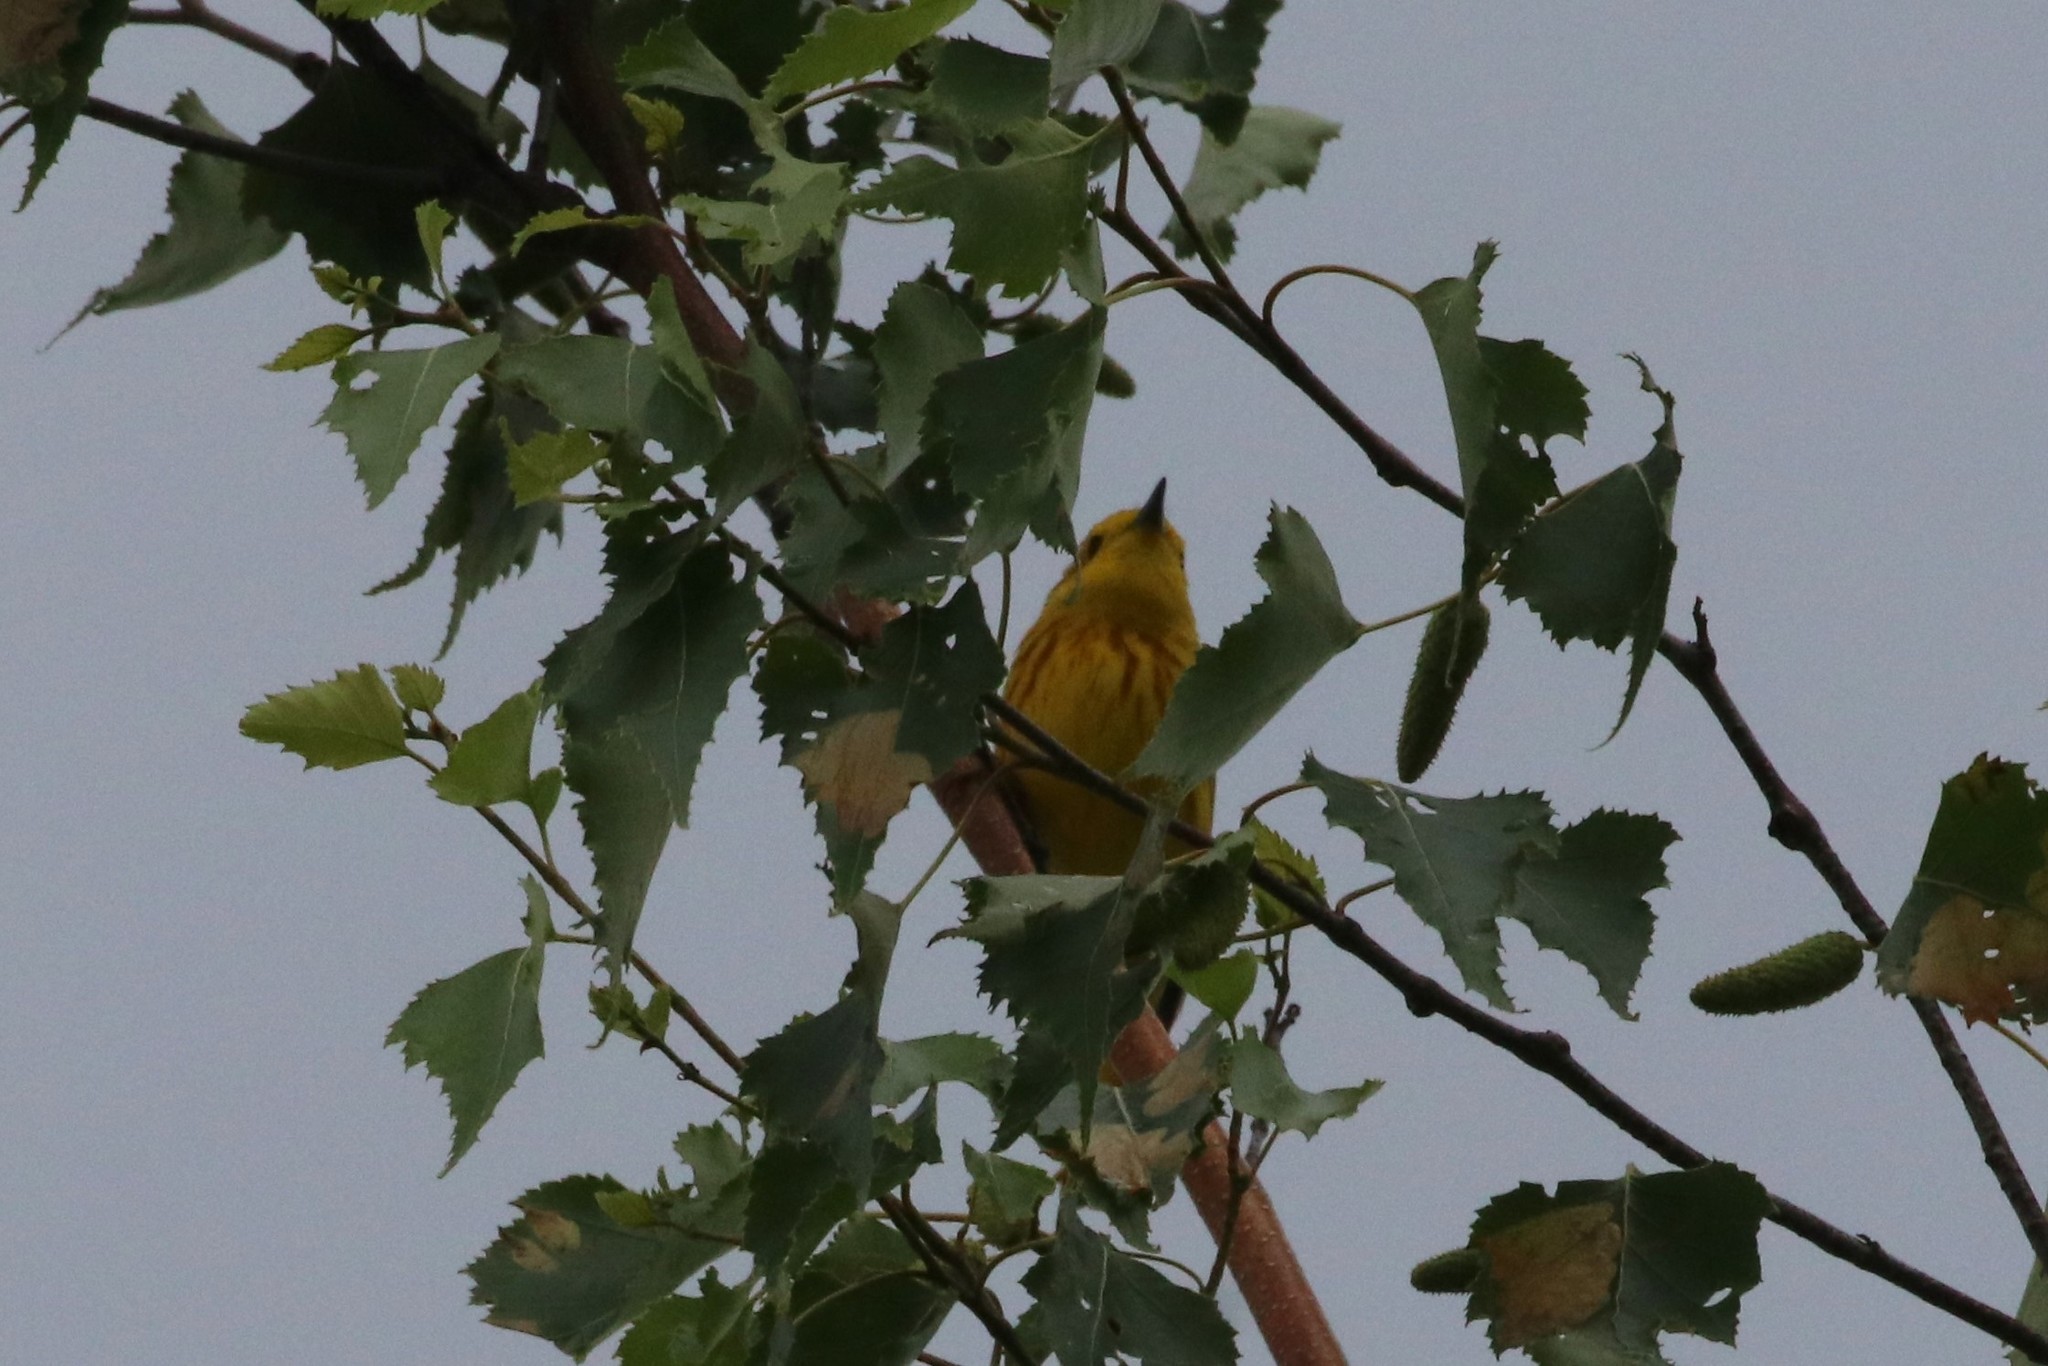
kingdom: Animalia
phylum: Chordata
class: Aves
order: Passeriformes
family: Parulidae
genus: Setophaga
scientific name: Setophaga petechia
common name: Yellow warbler
